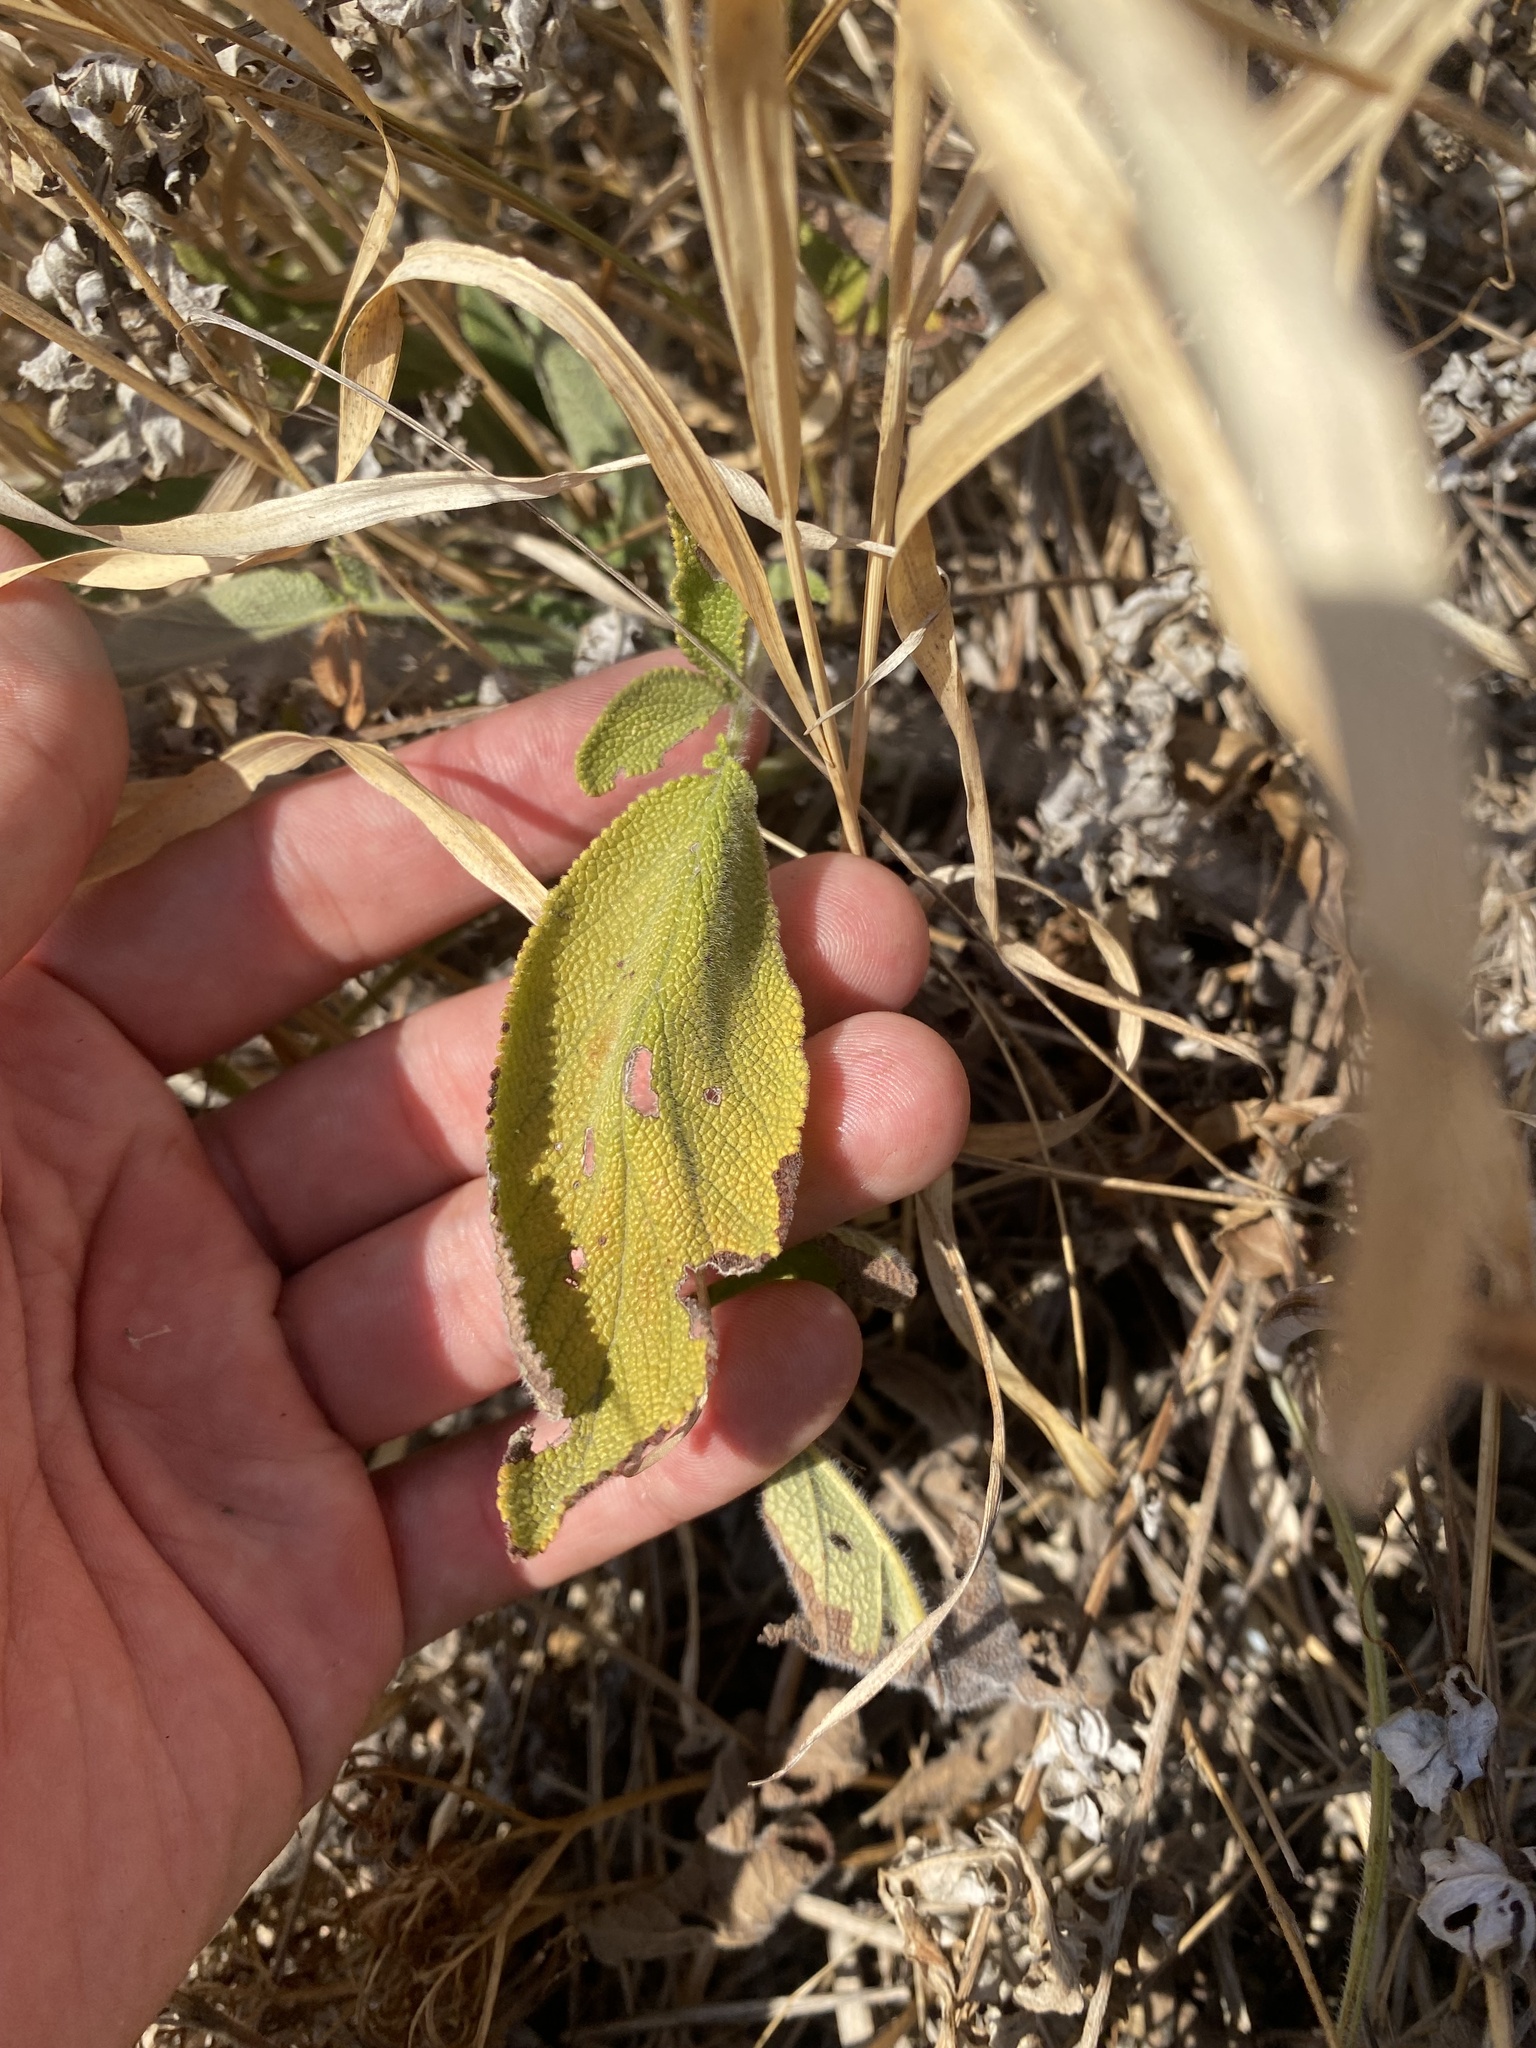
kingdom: Plantae
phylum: Tracheophyta
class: Magnoliopsida
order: Lamiales
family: Lamiaceae
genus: Salvia
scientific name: Salvia ringens
